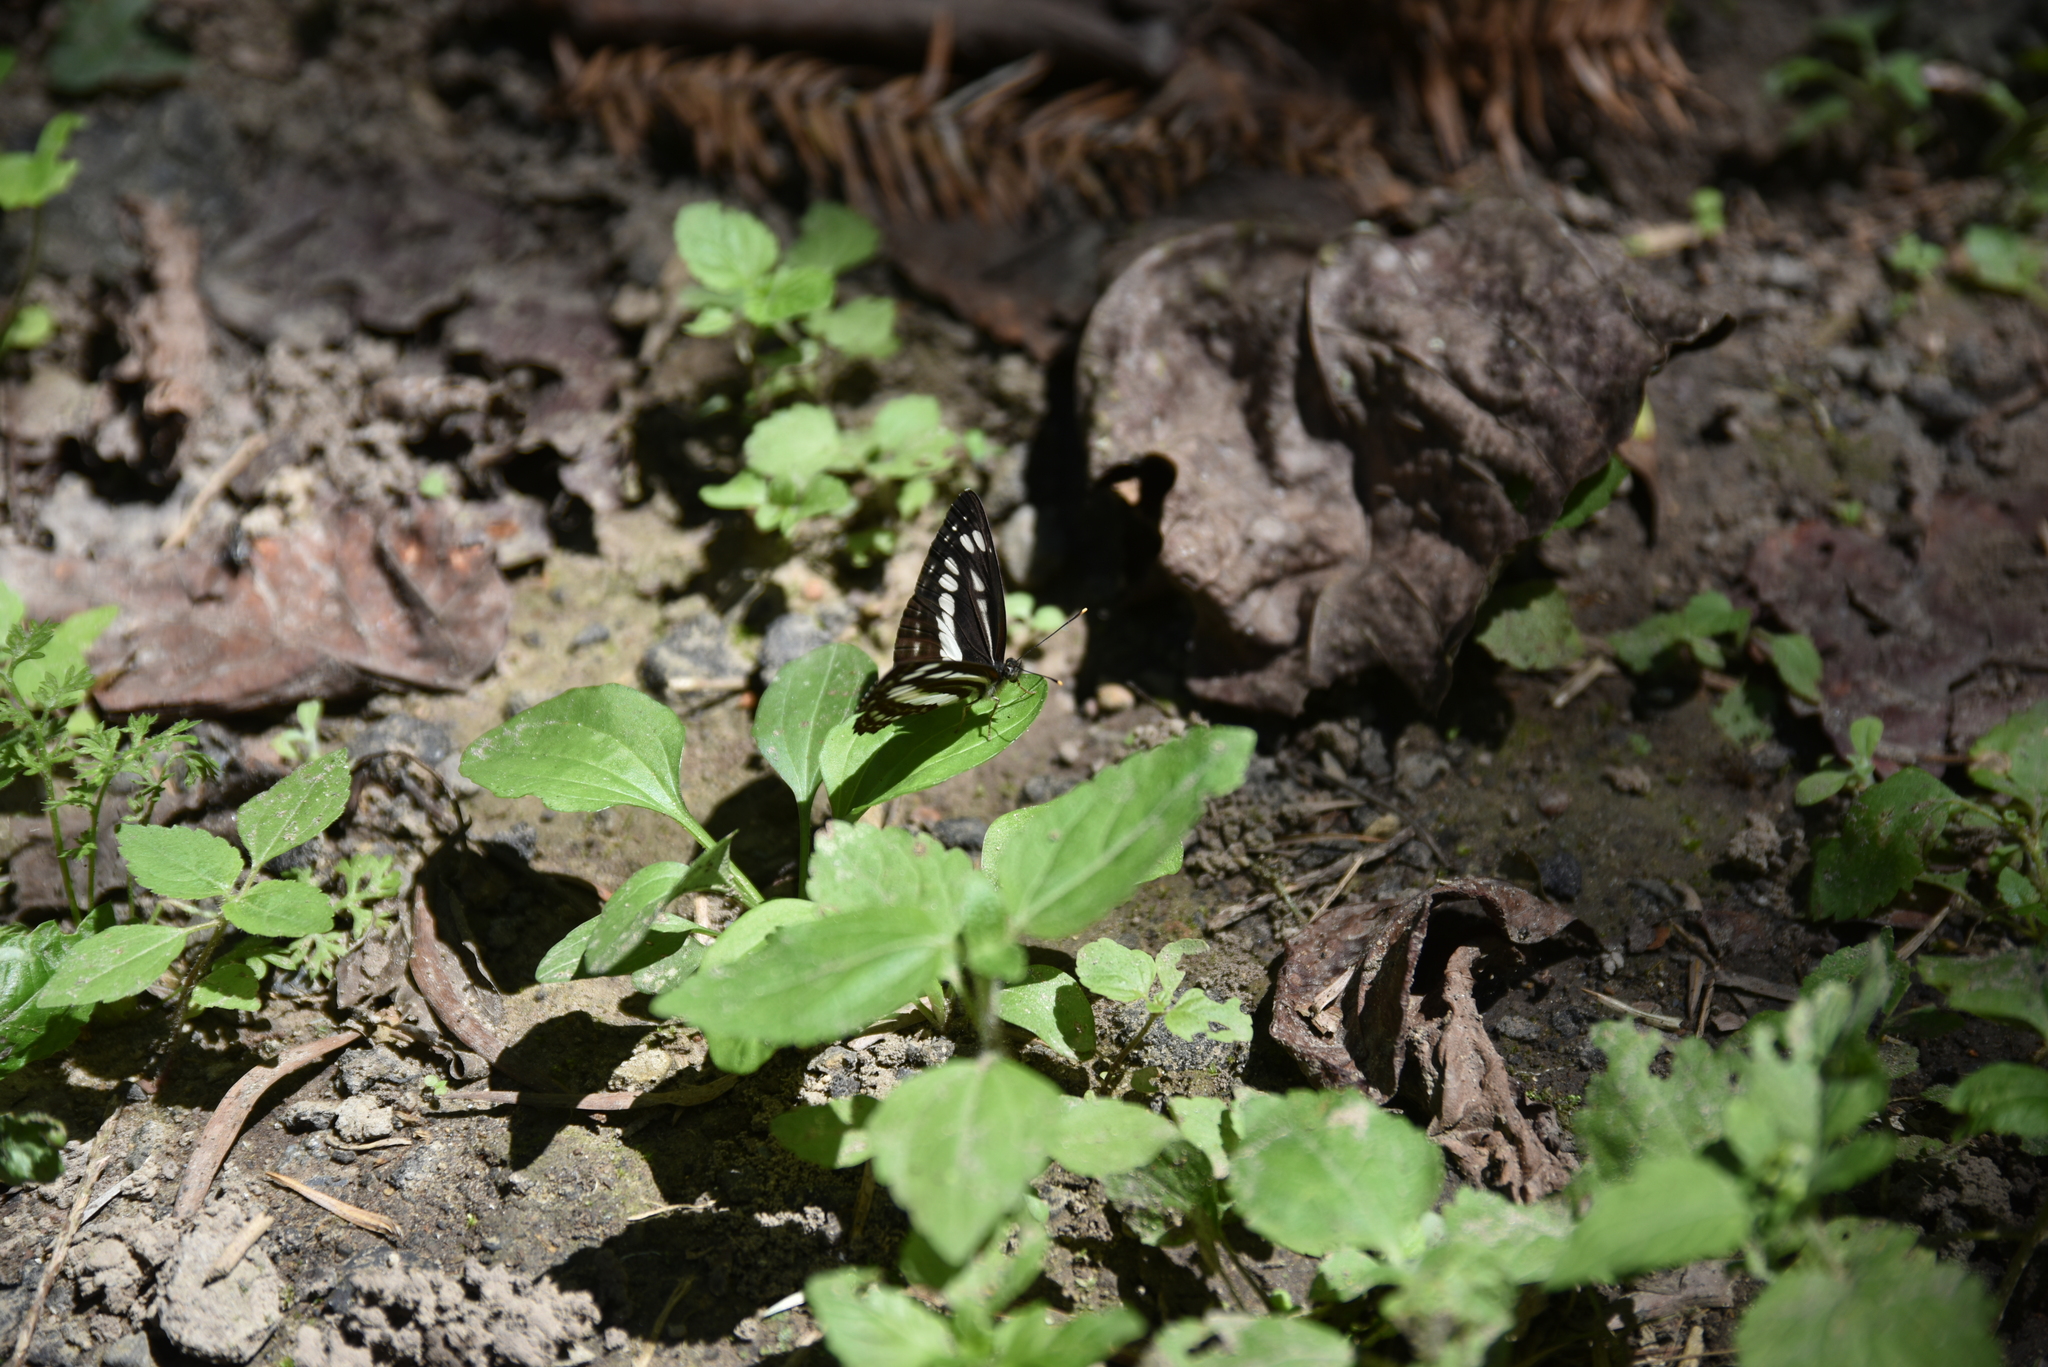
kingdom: Animalia
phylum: Arthropoda
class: Insecta
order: Lepidoptera
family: Nymphalidae
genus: Neptis
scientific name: Neptis nata
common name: Sullied brown sailer
